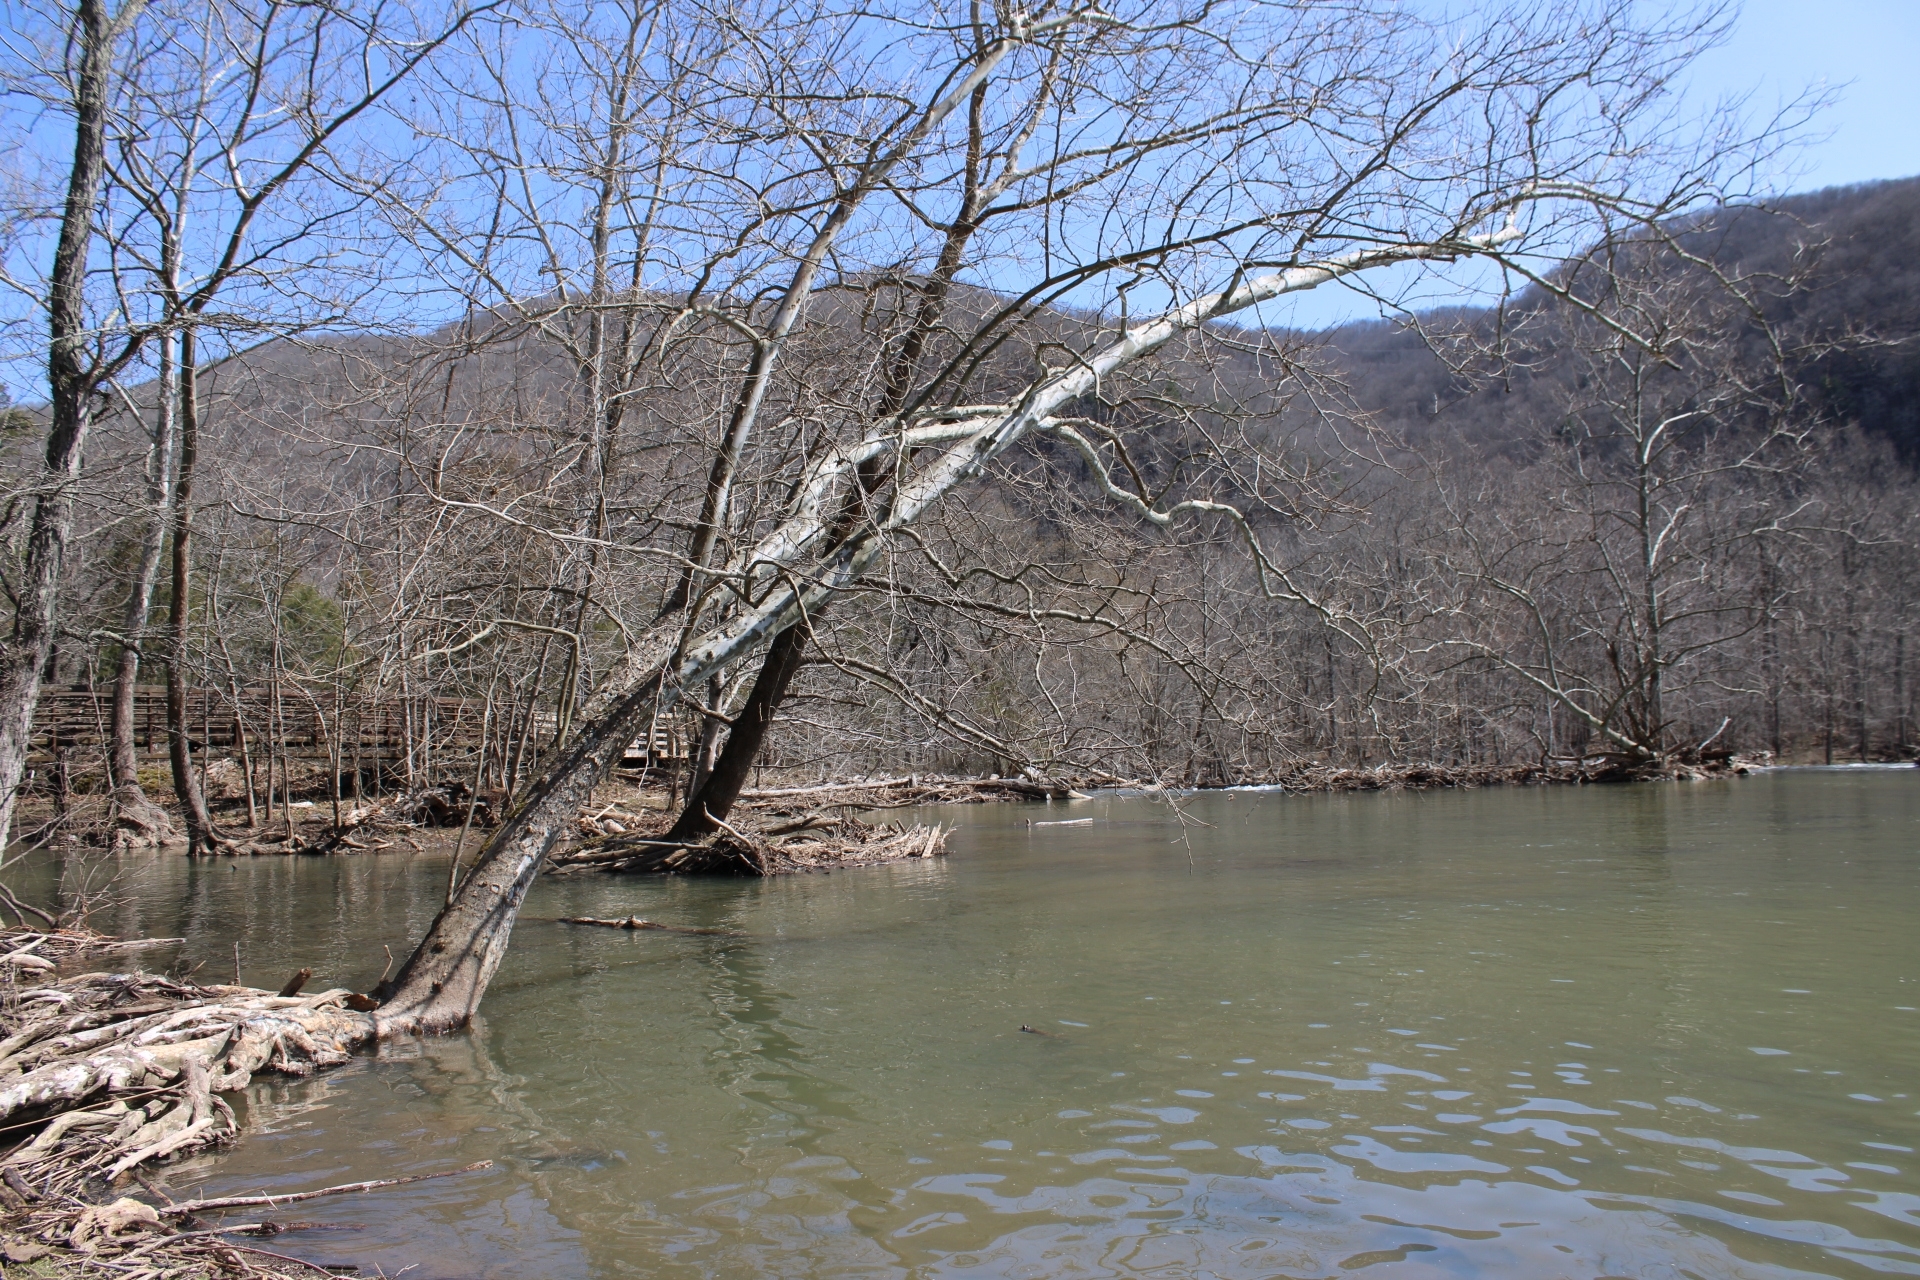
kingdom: Plantae
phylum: Tracheophyta
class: Magnoliopsida
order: Proteales
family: Platanaceae
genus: Platanus
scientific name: Platanus occidentalis
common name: American sycamore
